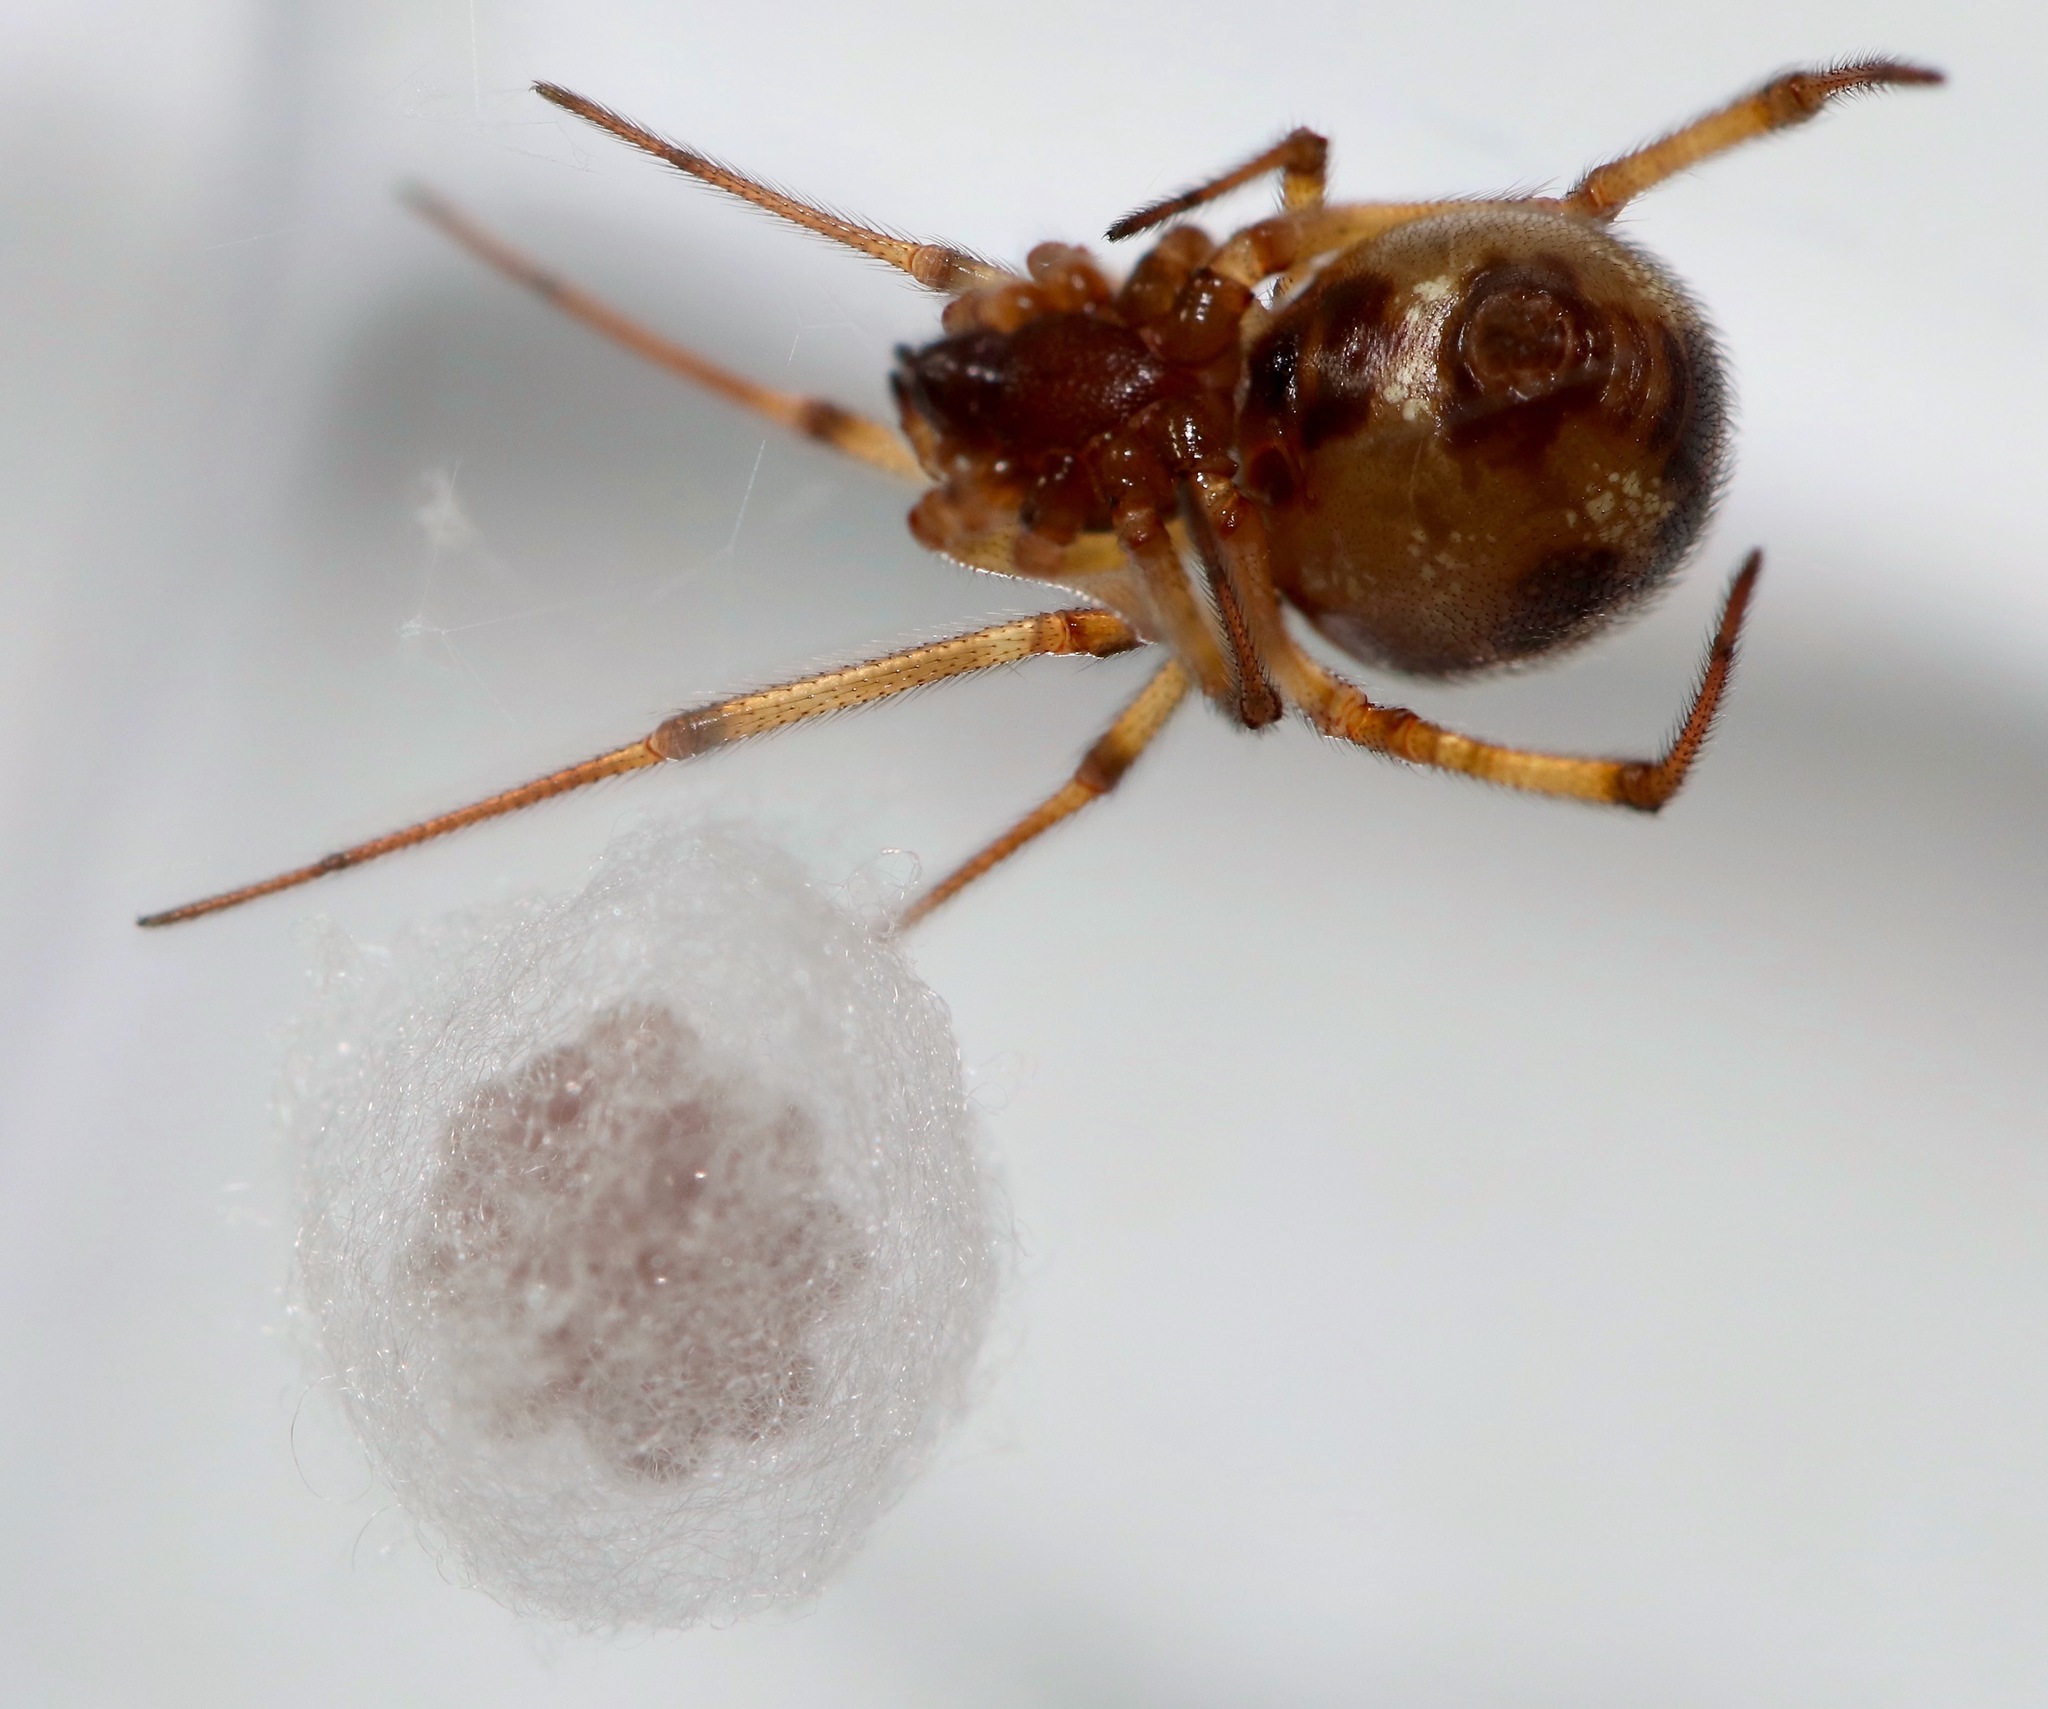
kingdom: Animalia
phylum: Arthropoda
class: Arachnida
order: Araneae
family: Theridiidae
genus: Steatoda
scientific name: Steatoda triangulosa
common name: Triangulate bud spider
